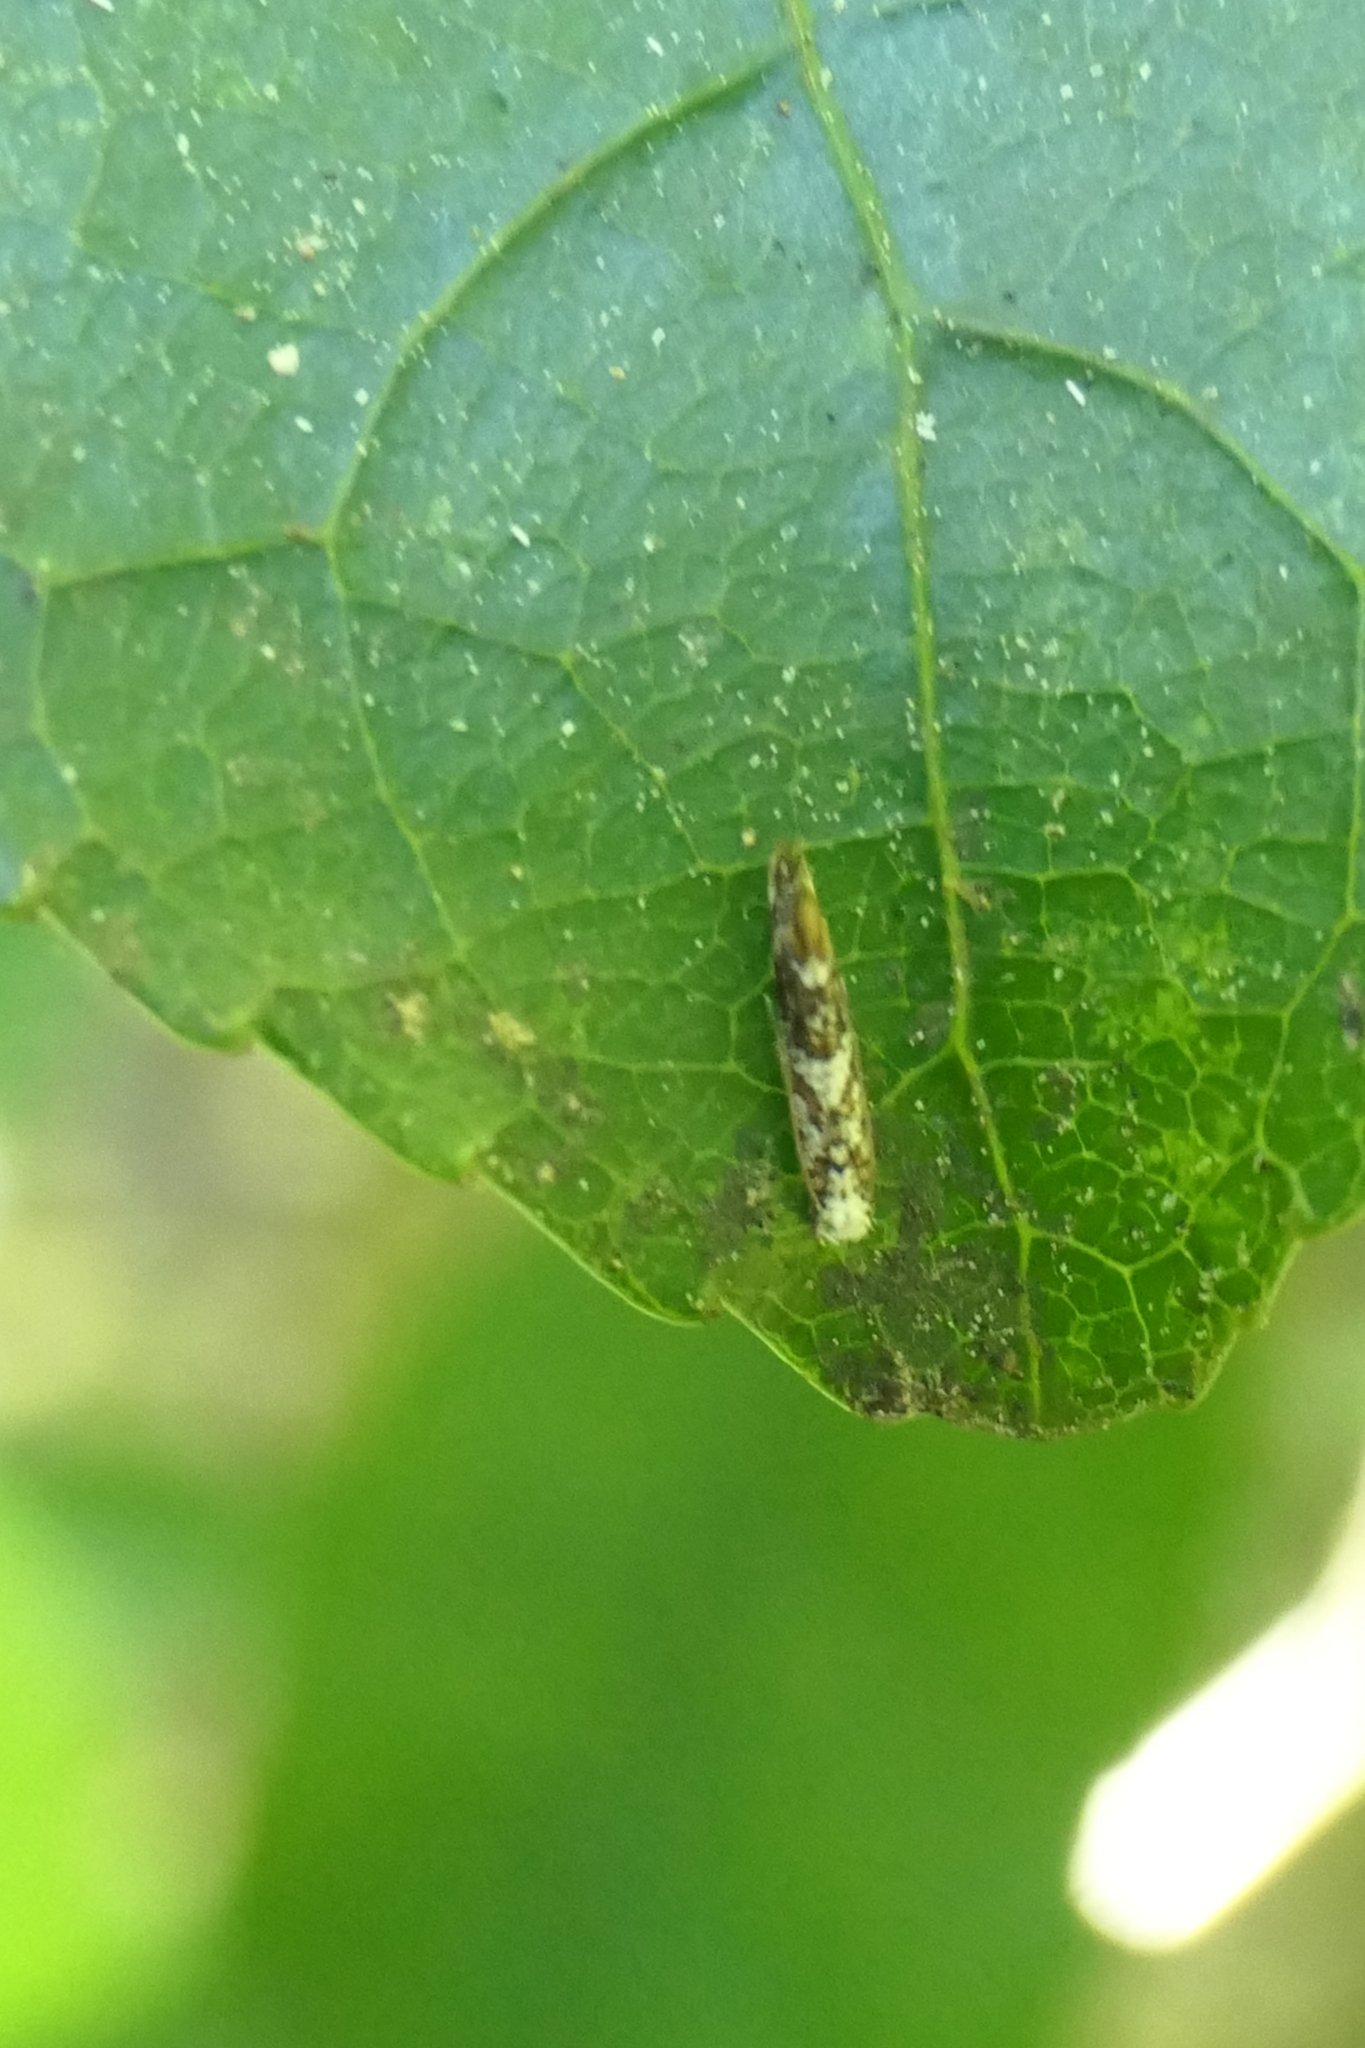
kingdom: Animalia
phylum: Arthropoda
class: Insecta
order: Lepidoptera
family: Tineidae
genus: Eschatotypa
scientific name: Eschatotypa derogatella
